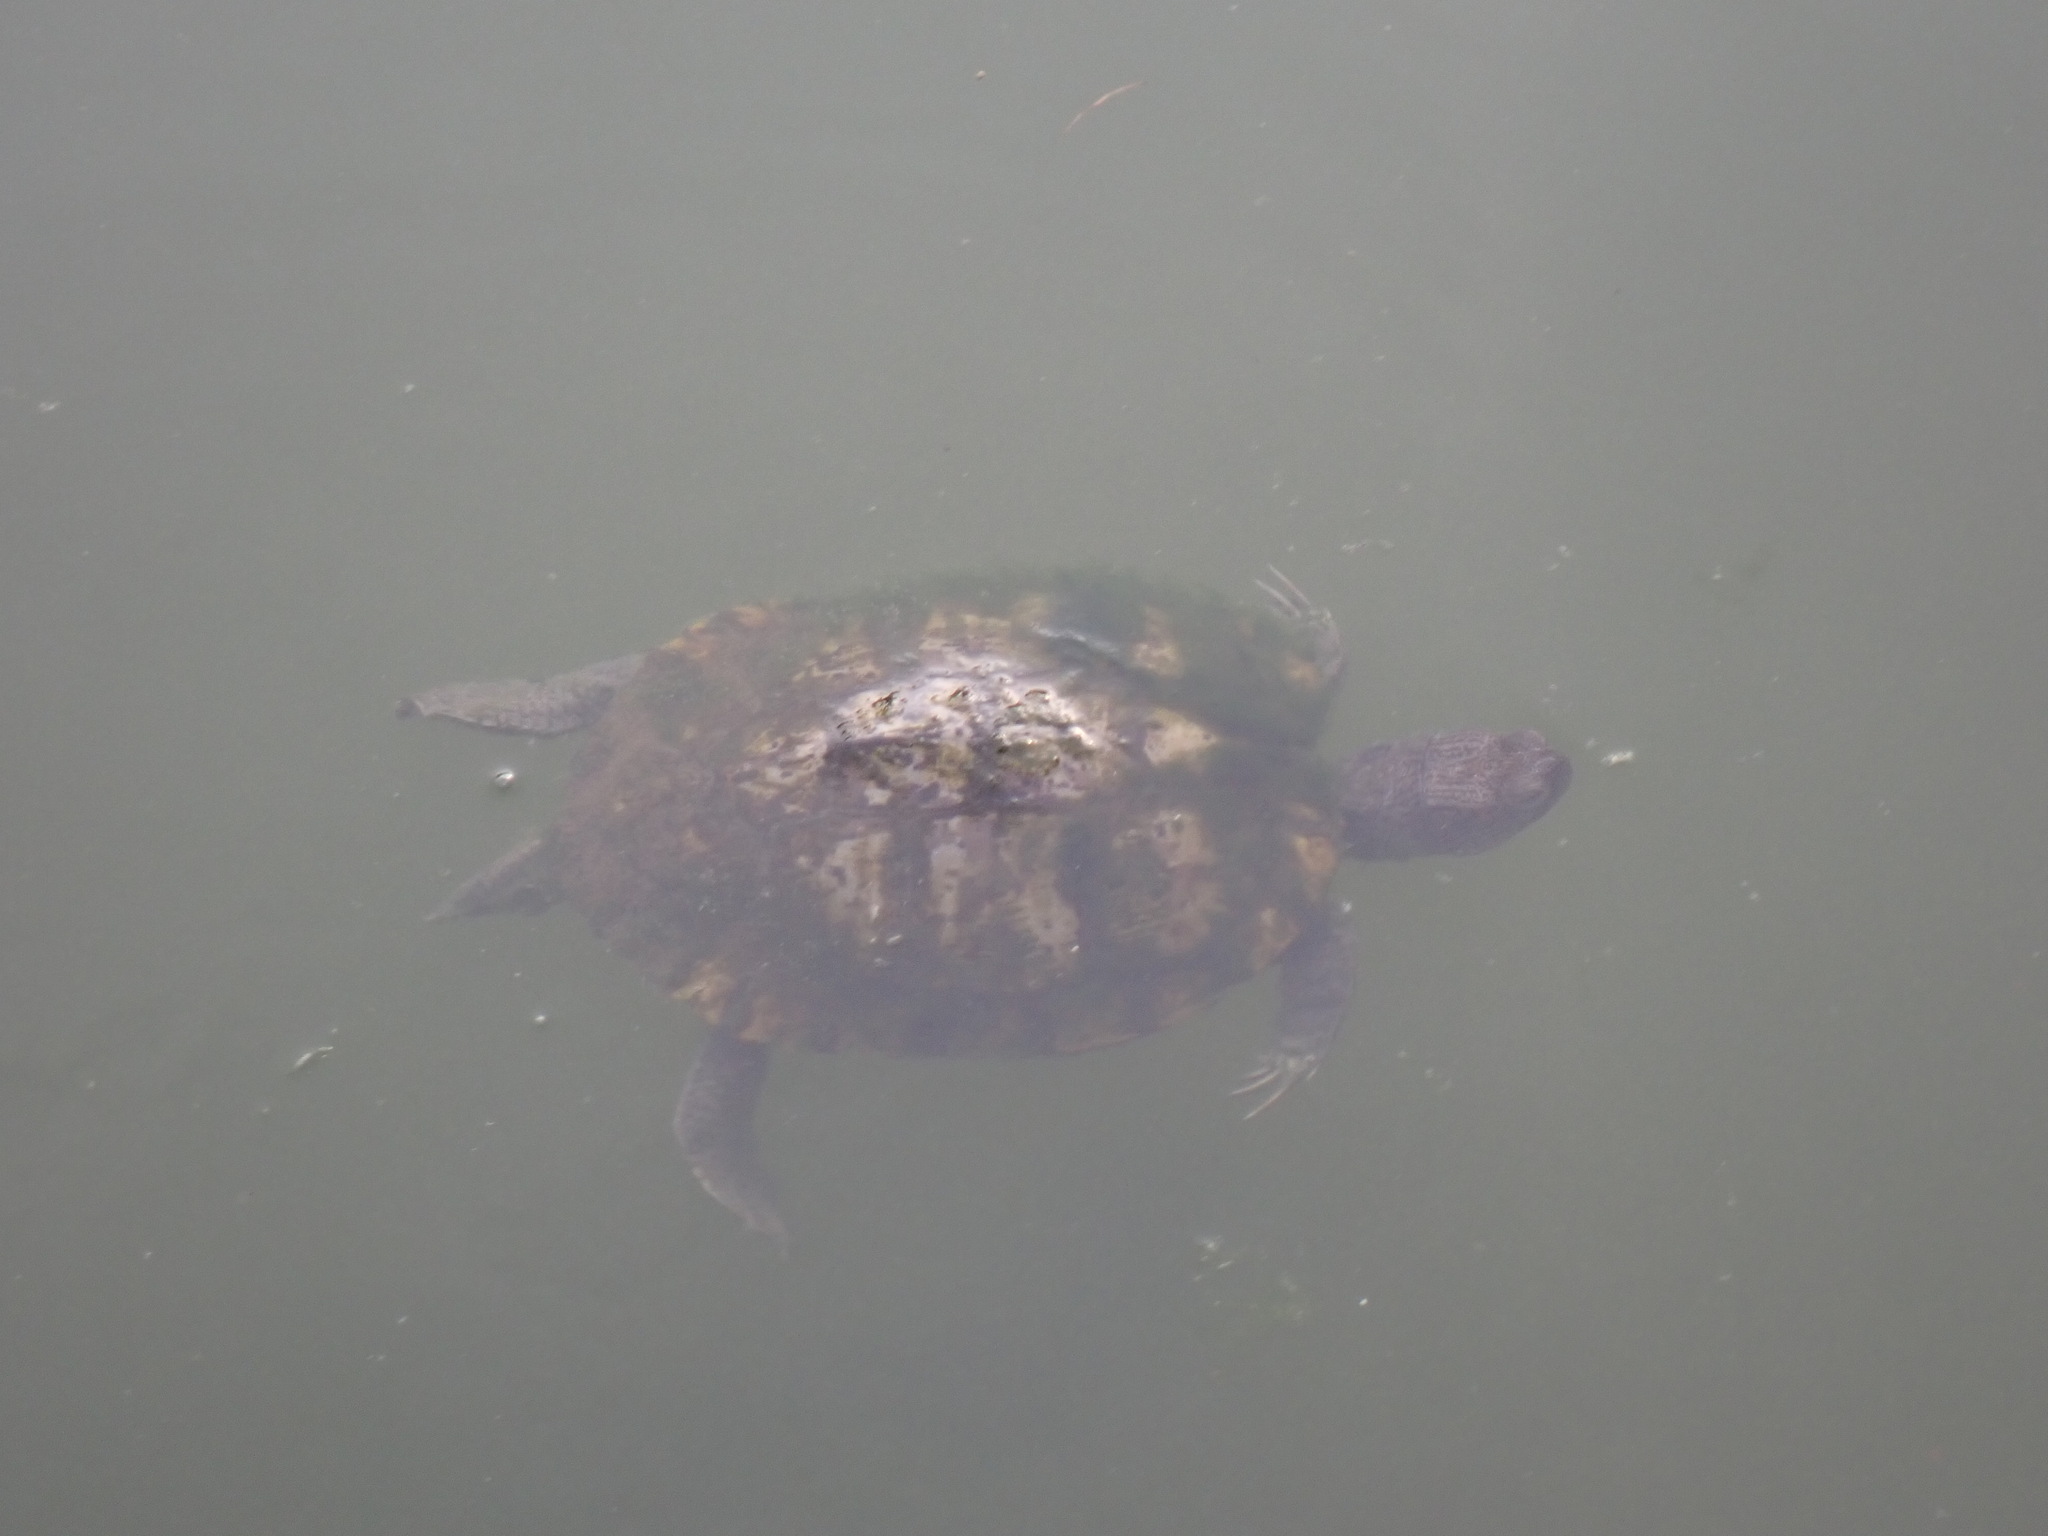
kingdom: Animalia
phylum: Chordata
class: Testudines
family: Emydidae
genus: Trachemys
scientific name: Trachemys scripta
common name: Slider
